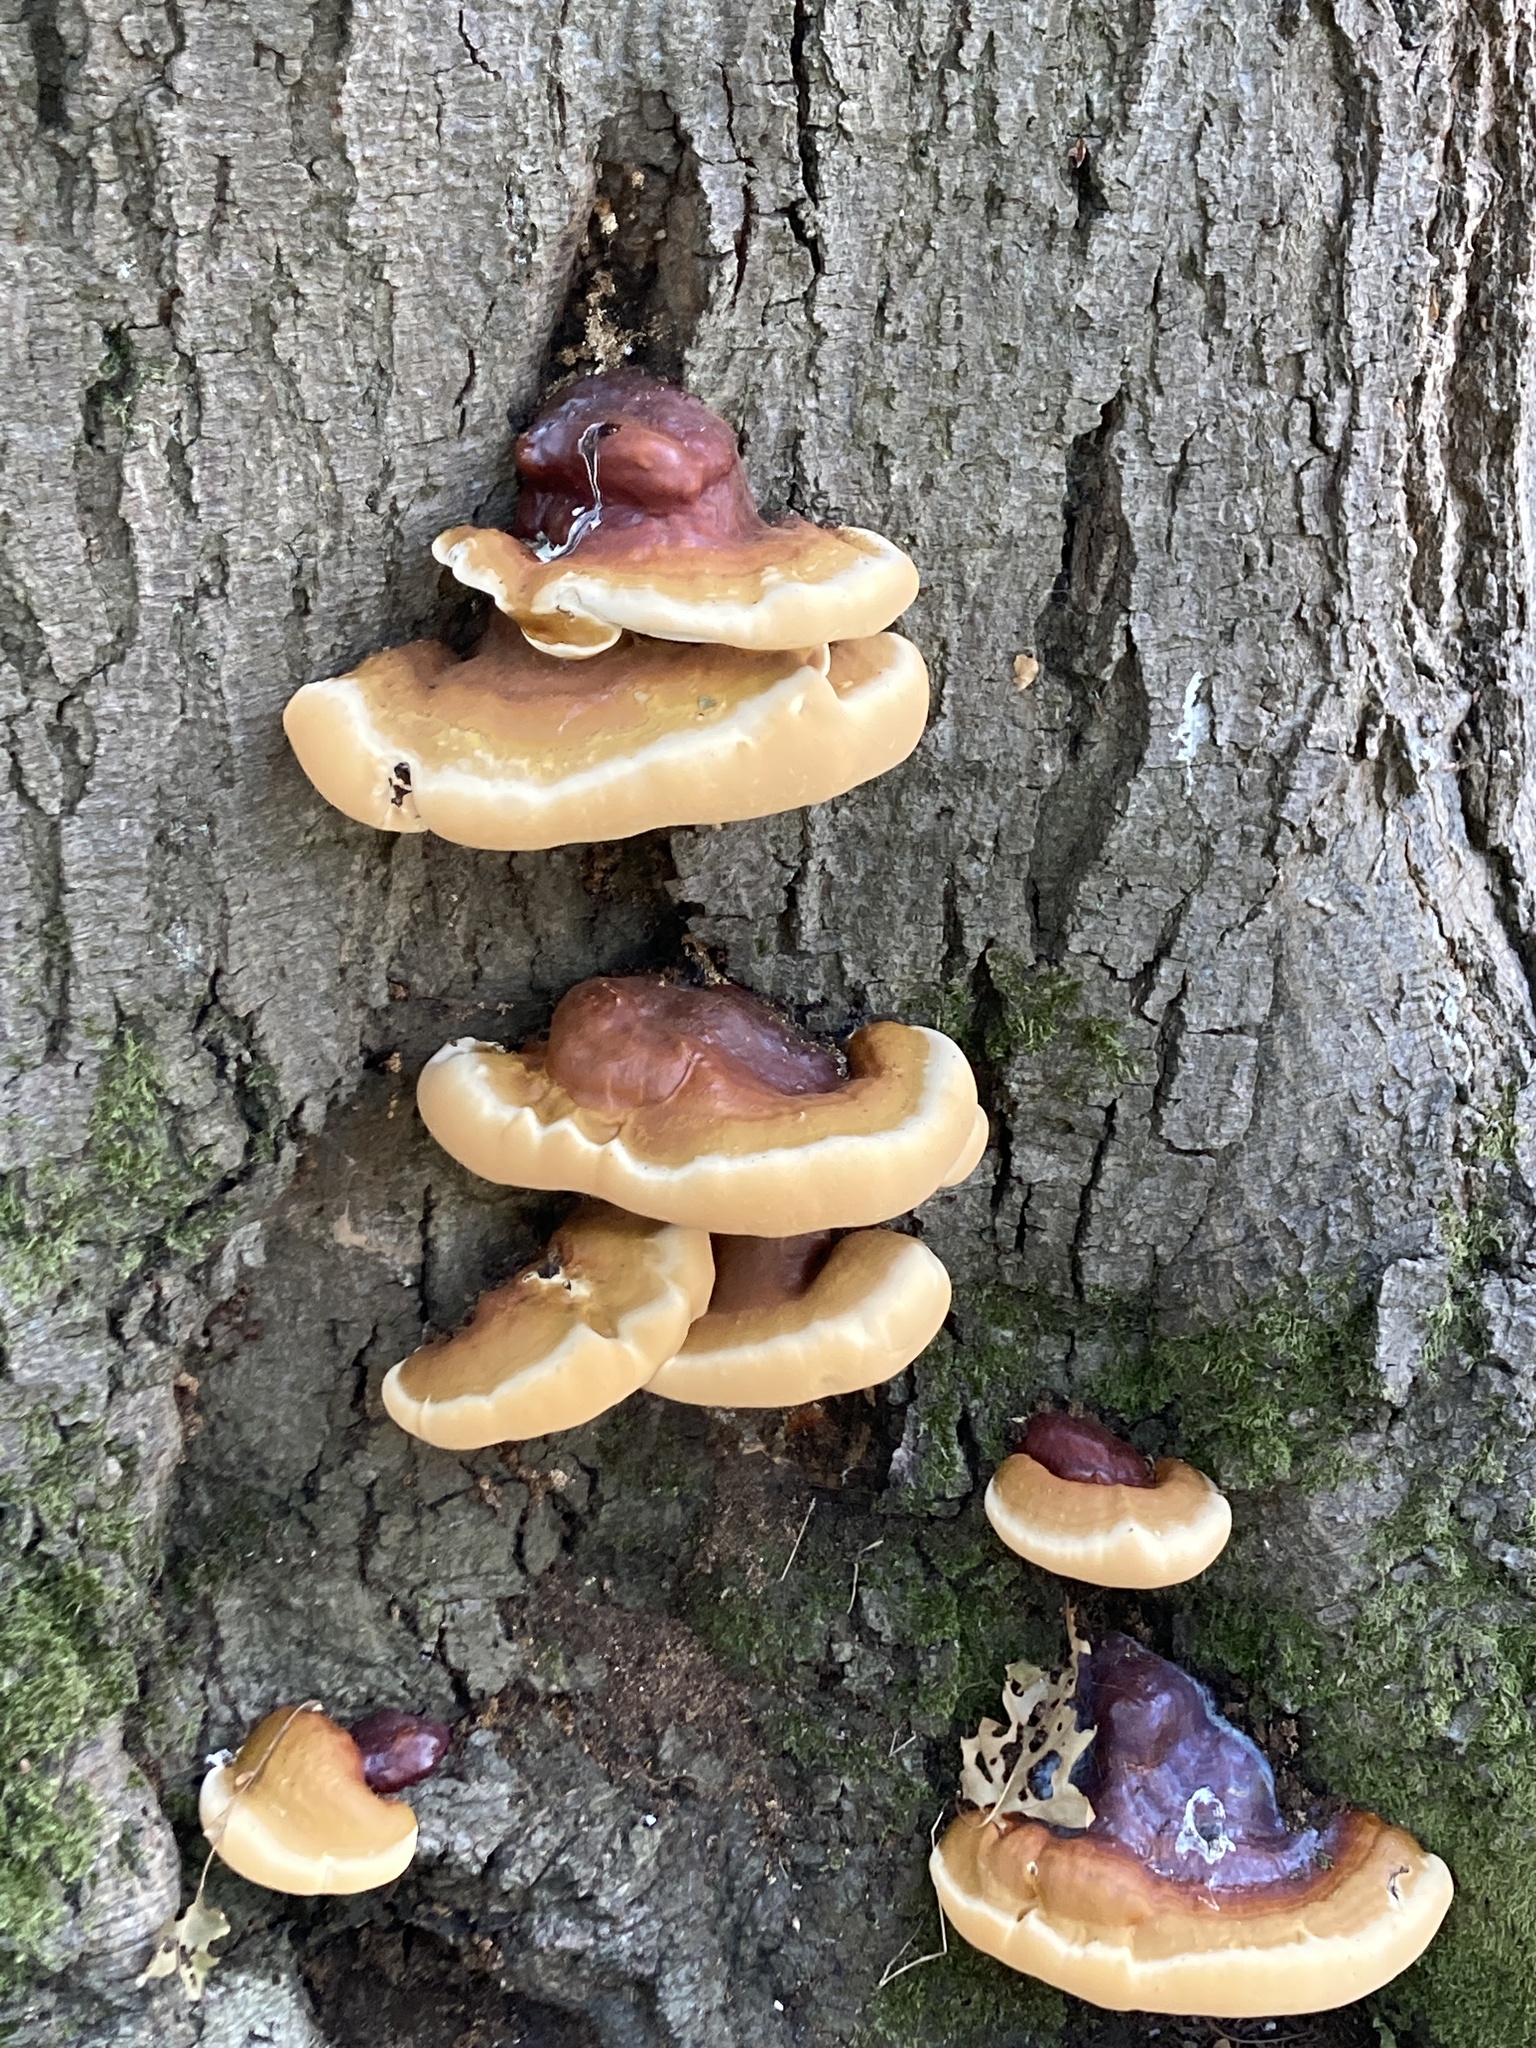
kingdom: Fungi
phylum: Basidiomycota
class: Agaricomycetes
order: Polyporales
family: Polyporaceae
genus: Ganoderma
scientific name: Ganoderma resinaceum
